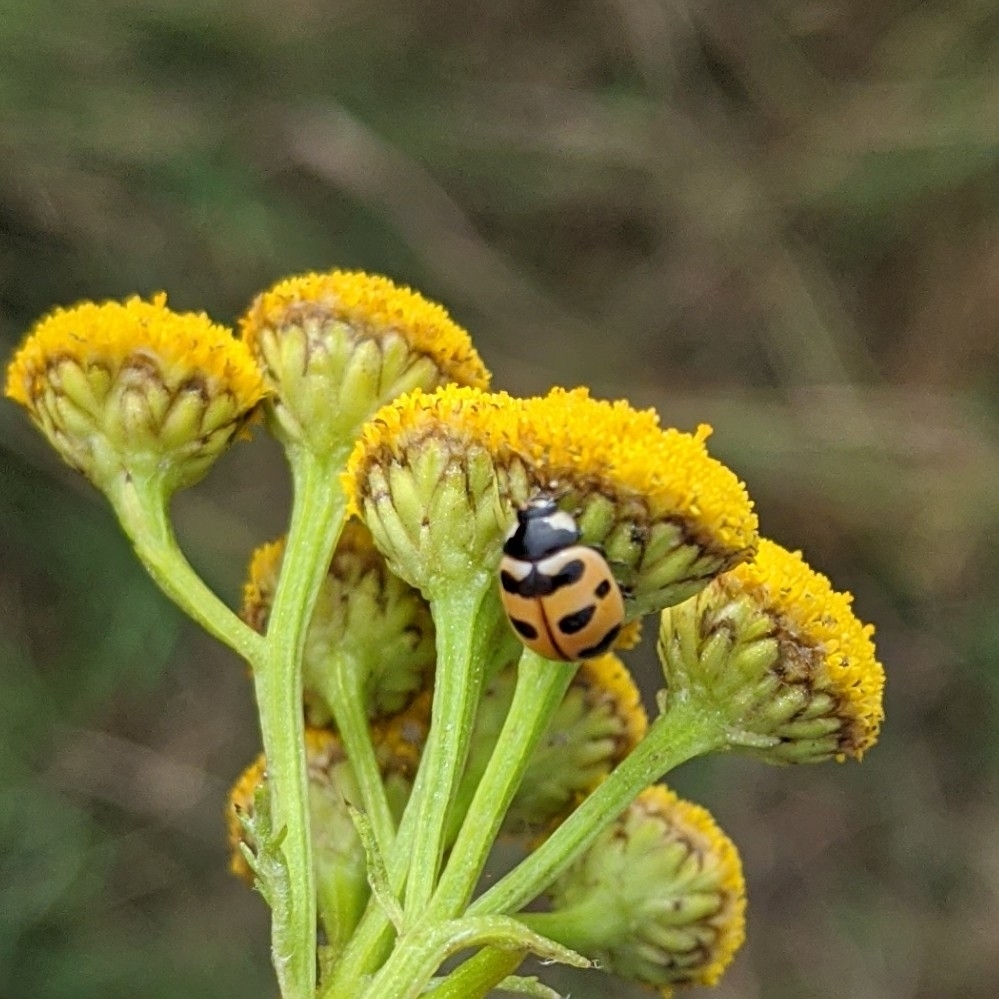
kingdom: Animalia
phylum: Arthropoda
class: Insecta
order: Coleoptera
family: Coccinellidae
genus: Coccinella
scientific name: Coccinella trifasciata
